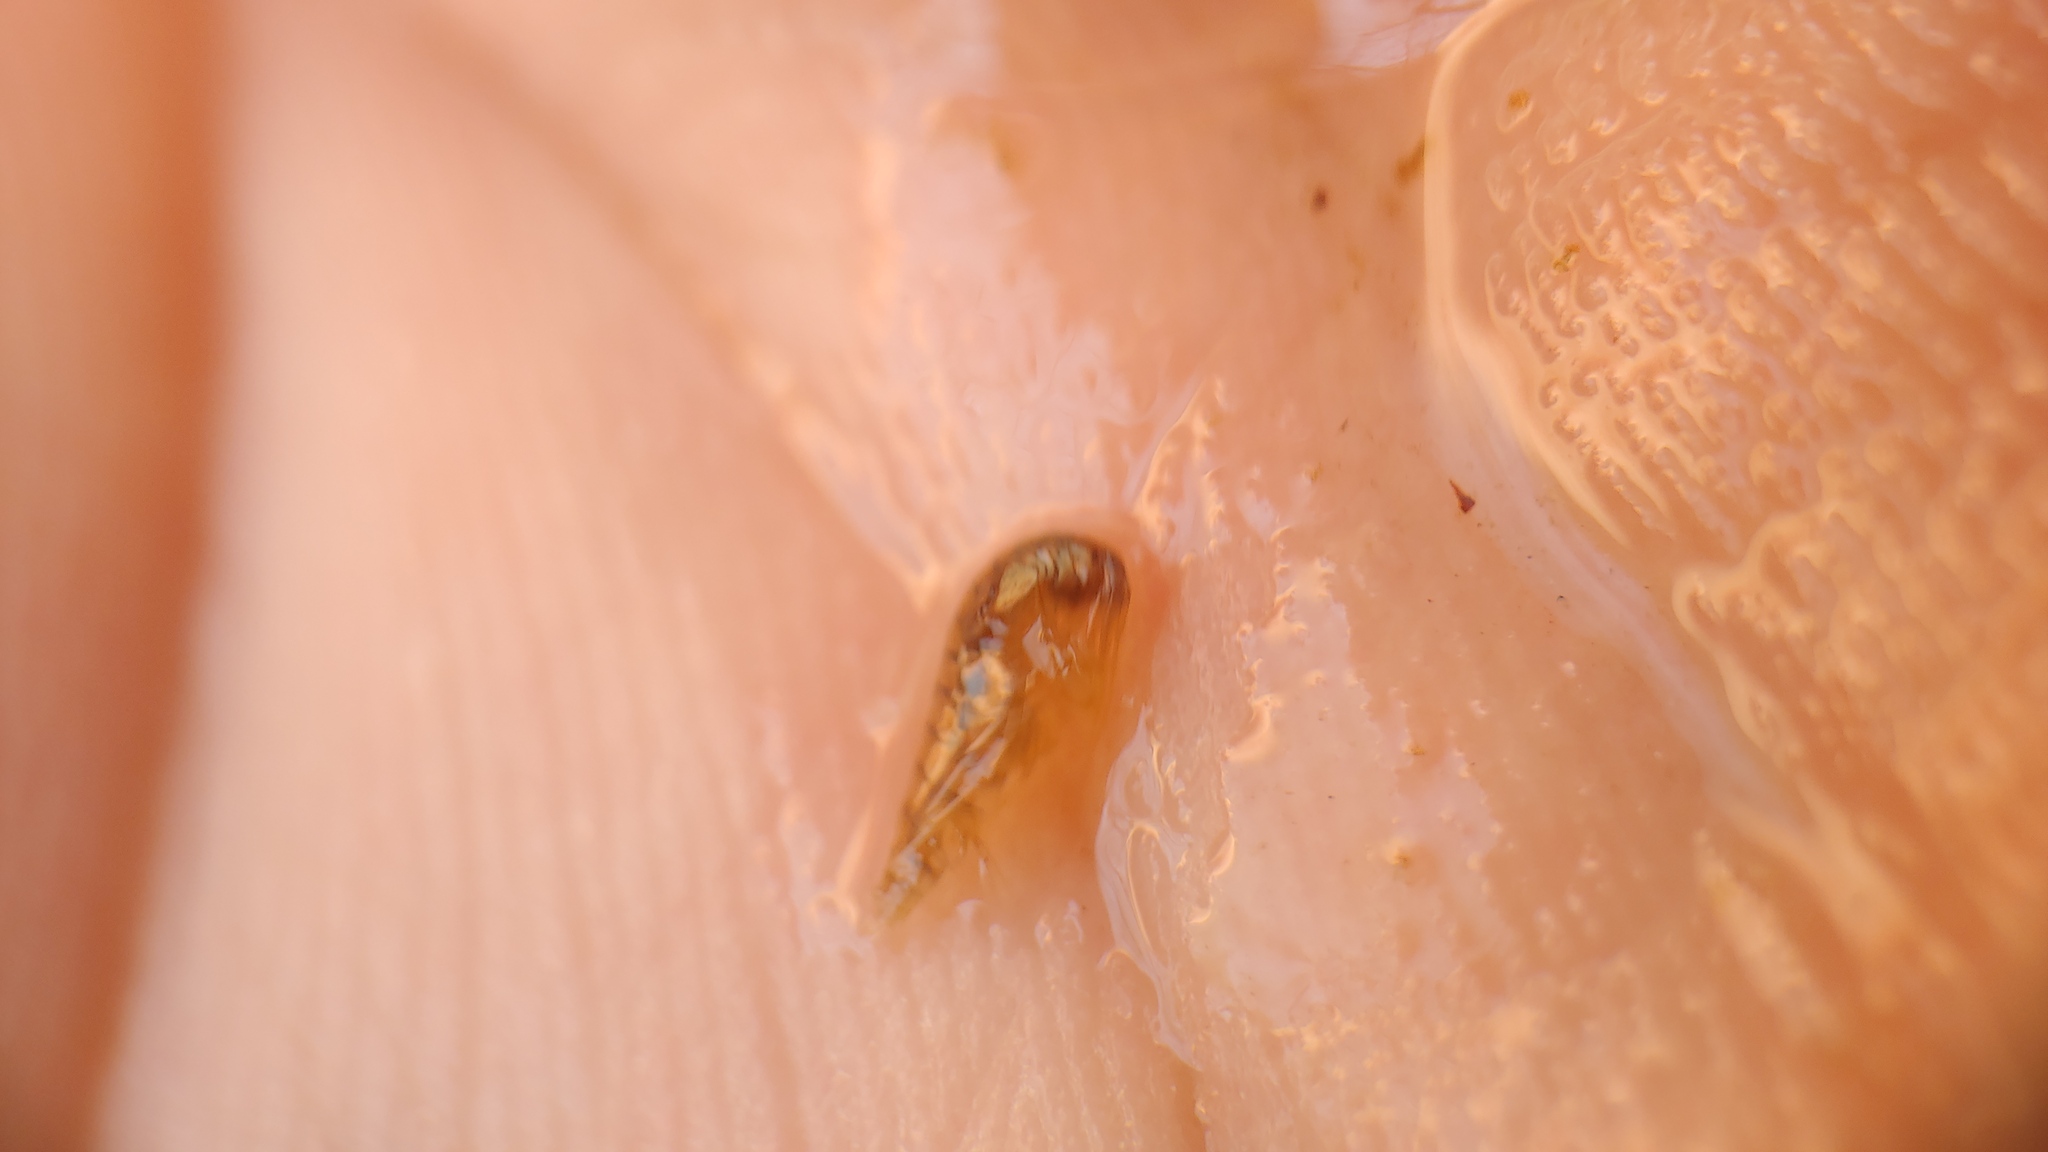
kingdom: Animalia
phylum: Arthropoda
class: Malacostraca
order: Amphipoda
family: Crangonyctidae
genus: Crangonyx
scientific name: Crangonyx
